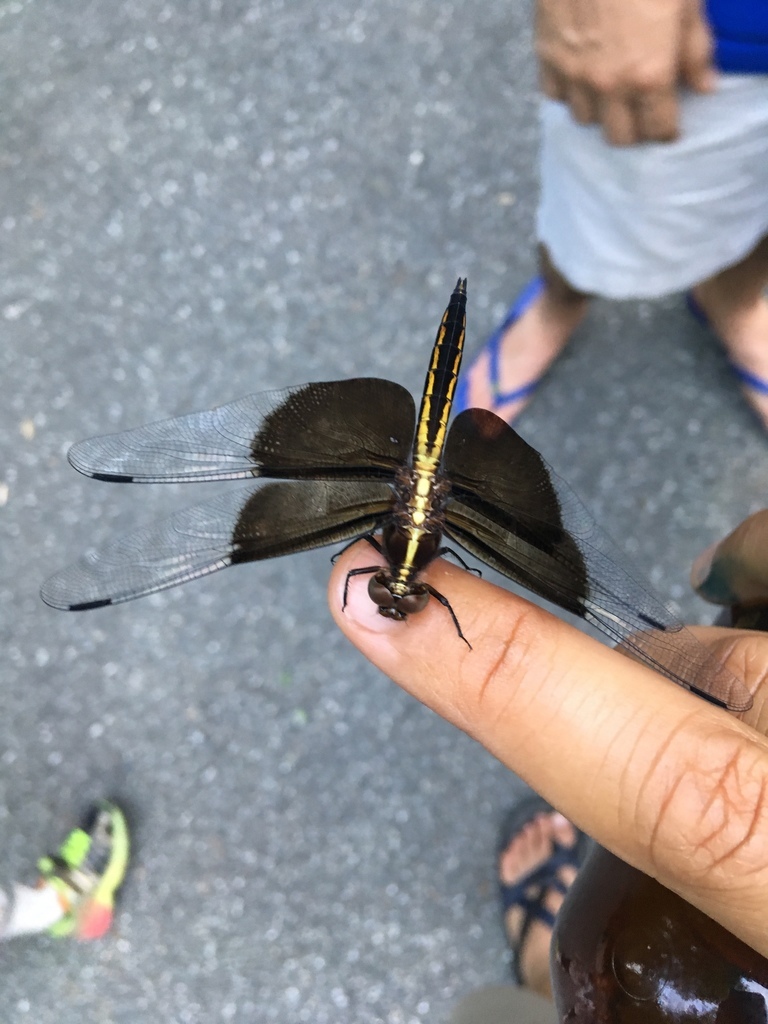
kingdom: Animalia
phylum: Arthropoda
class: Insecta
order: Odonata
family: Libellulidae
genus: Libellula
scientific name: Libellula luctuosa
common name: Widow skimmer
